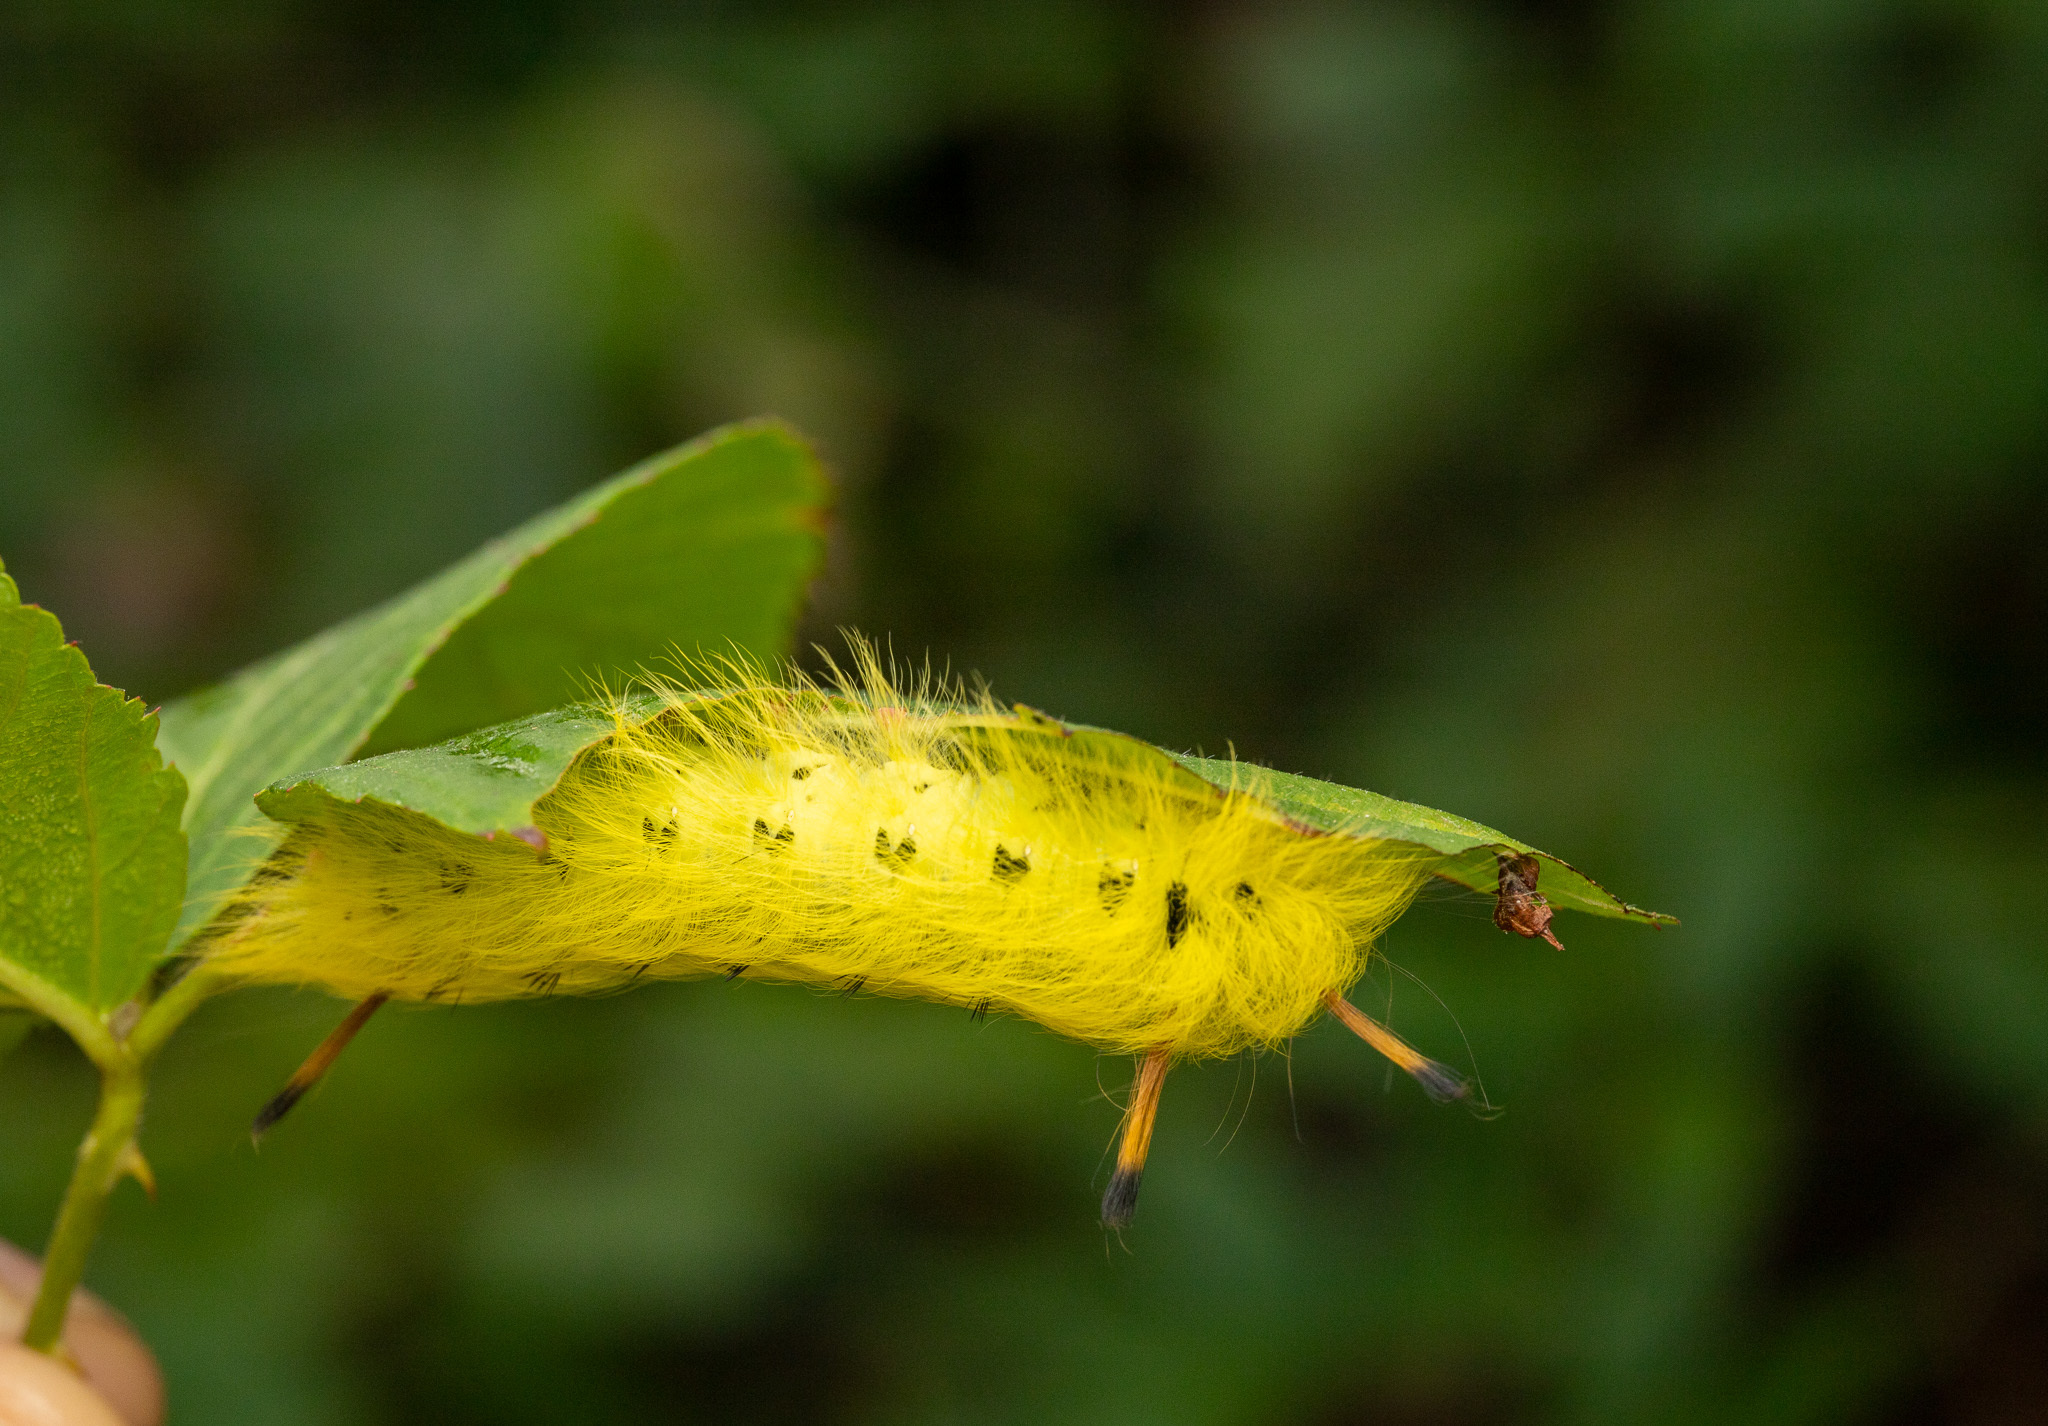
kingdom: Animalia
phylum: Arthropoda
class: Insecta
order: Lepidoptera
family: Apatelodidae
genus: Hygrochroa
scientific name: Hygrochroa Apatelodes torrefacta
